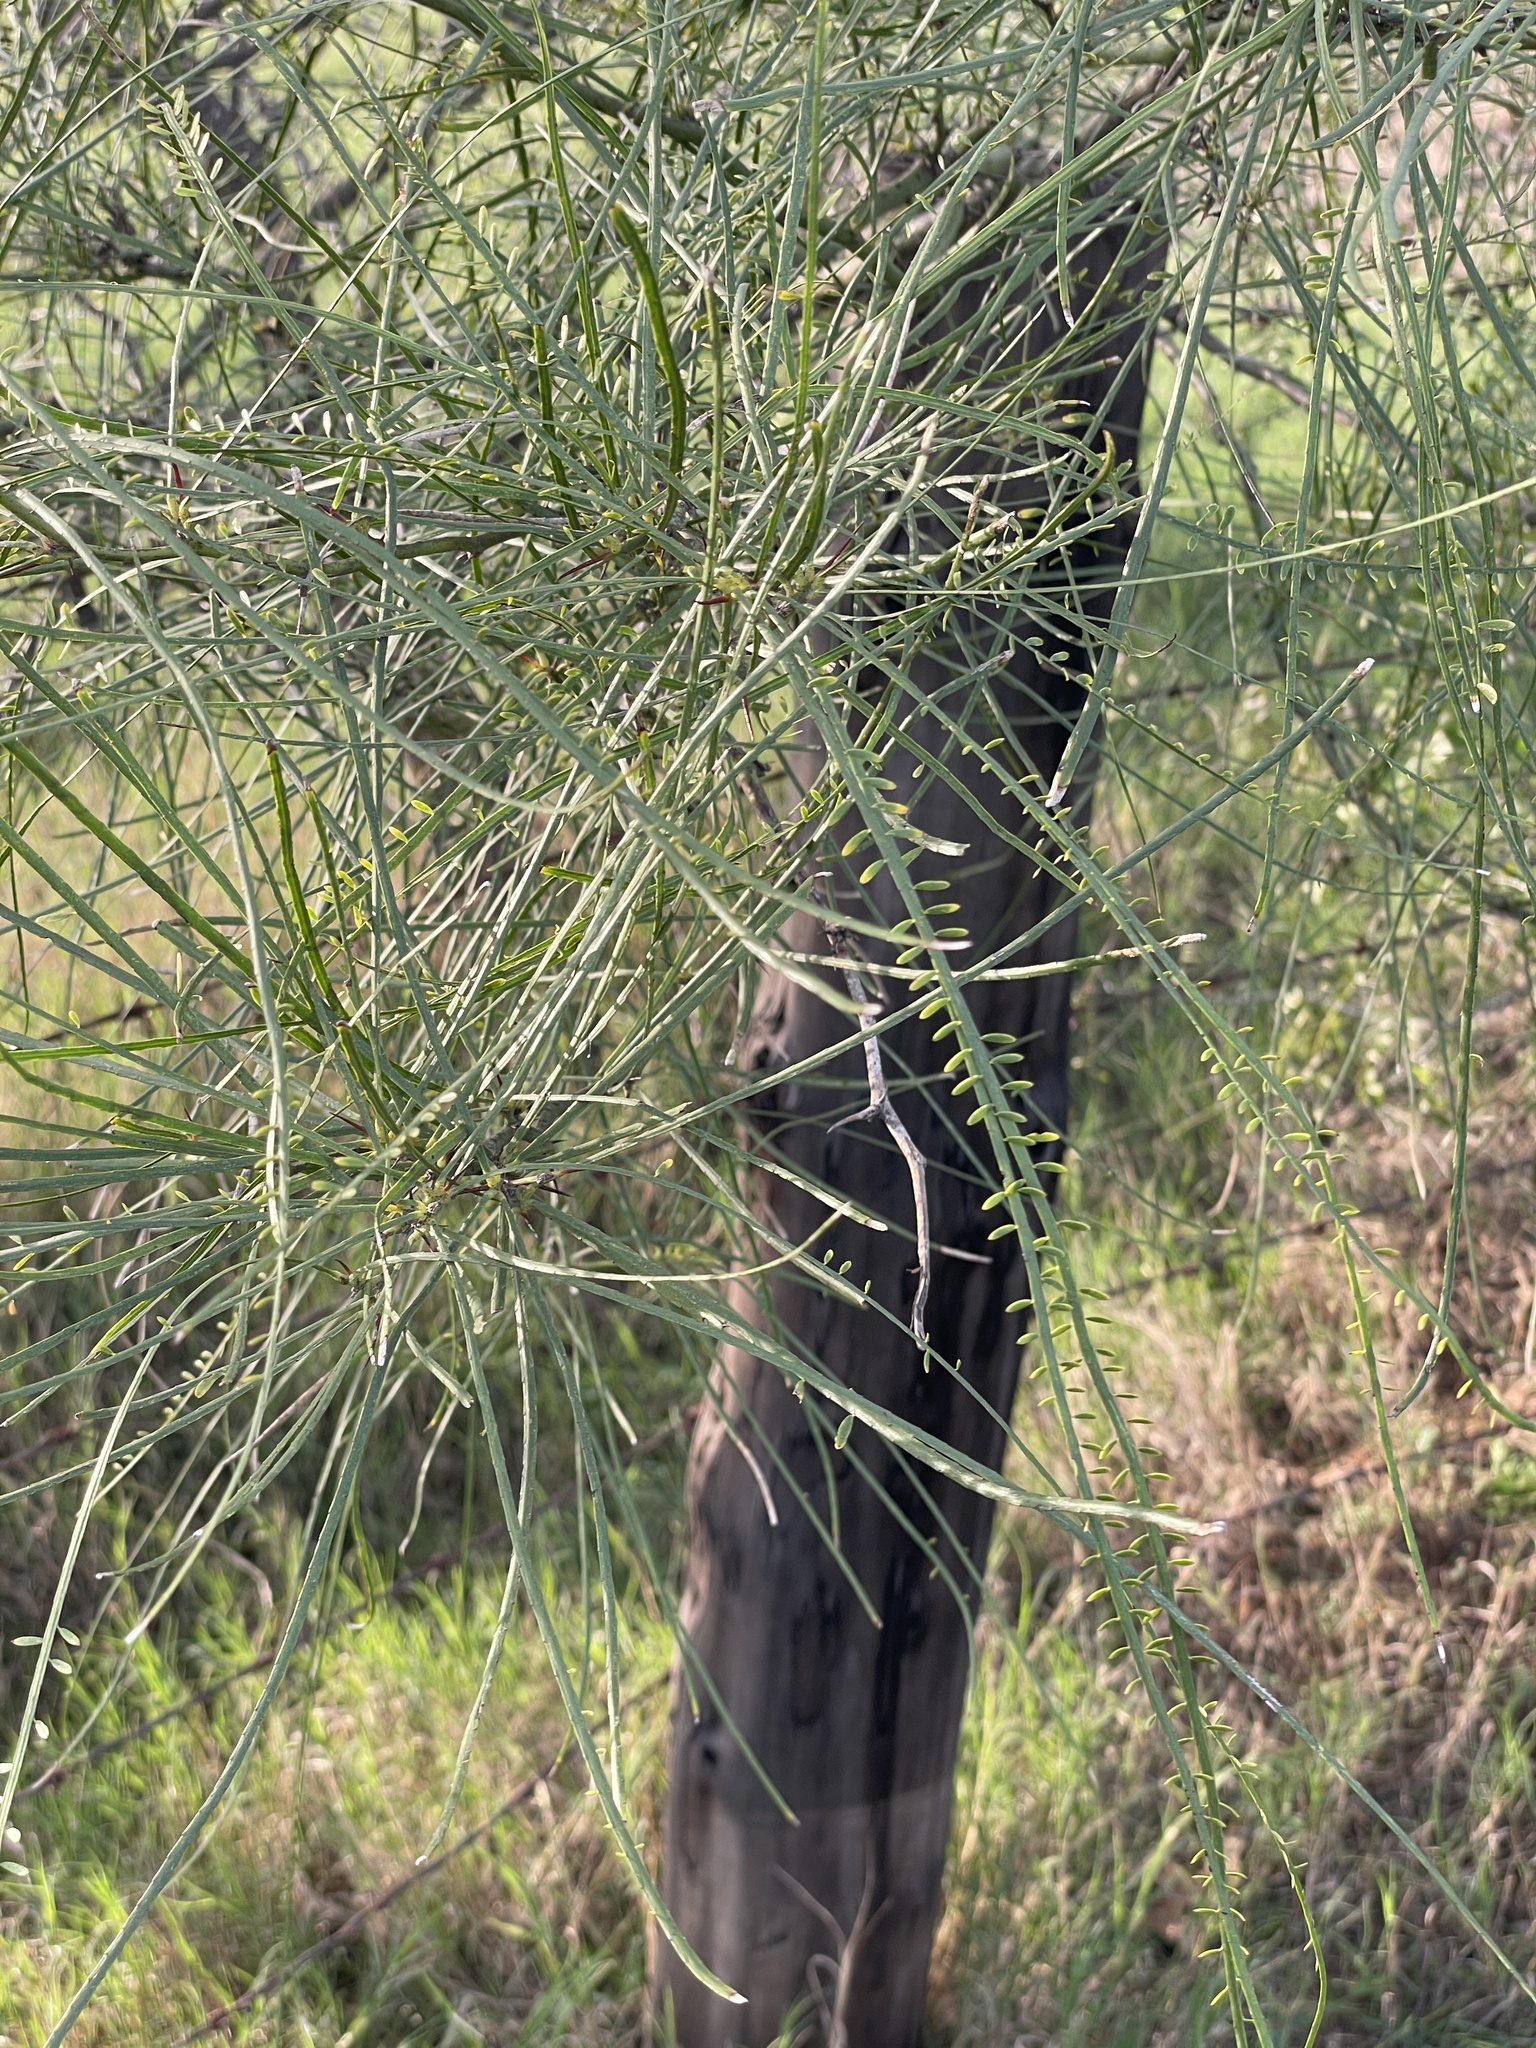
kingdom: Plantae
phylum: Tracheophyta
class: Magnoliopsida
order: Fabales
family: Fabaceae
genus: Parkinsonia
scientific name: Parkinsonia aculeata
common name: Jerusalem thorn
